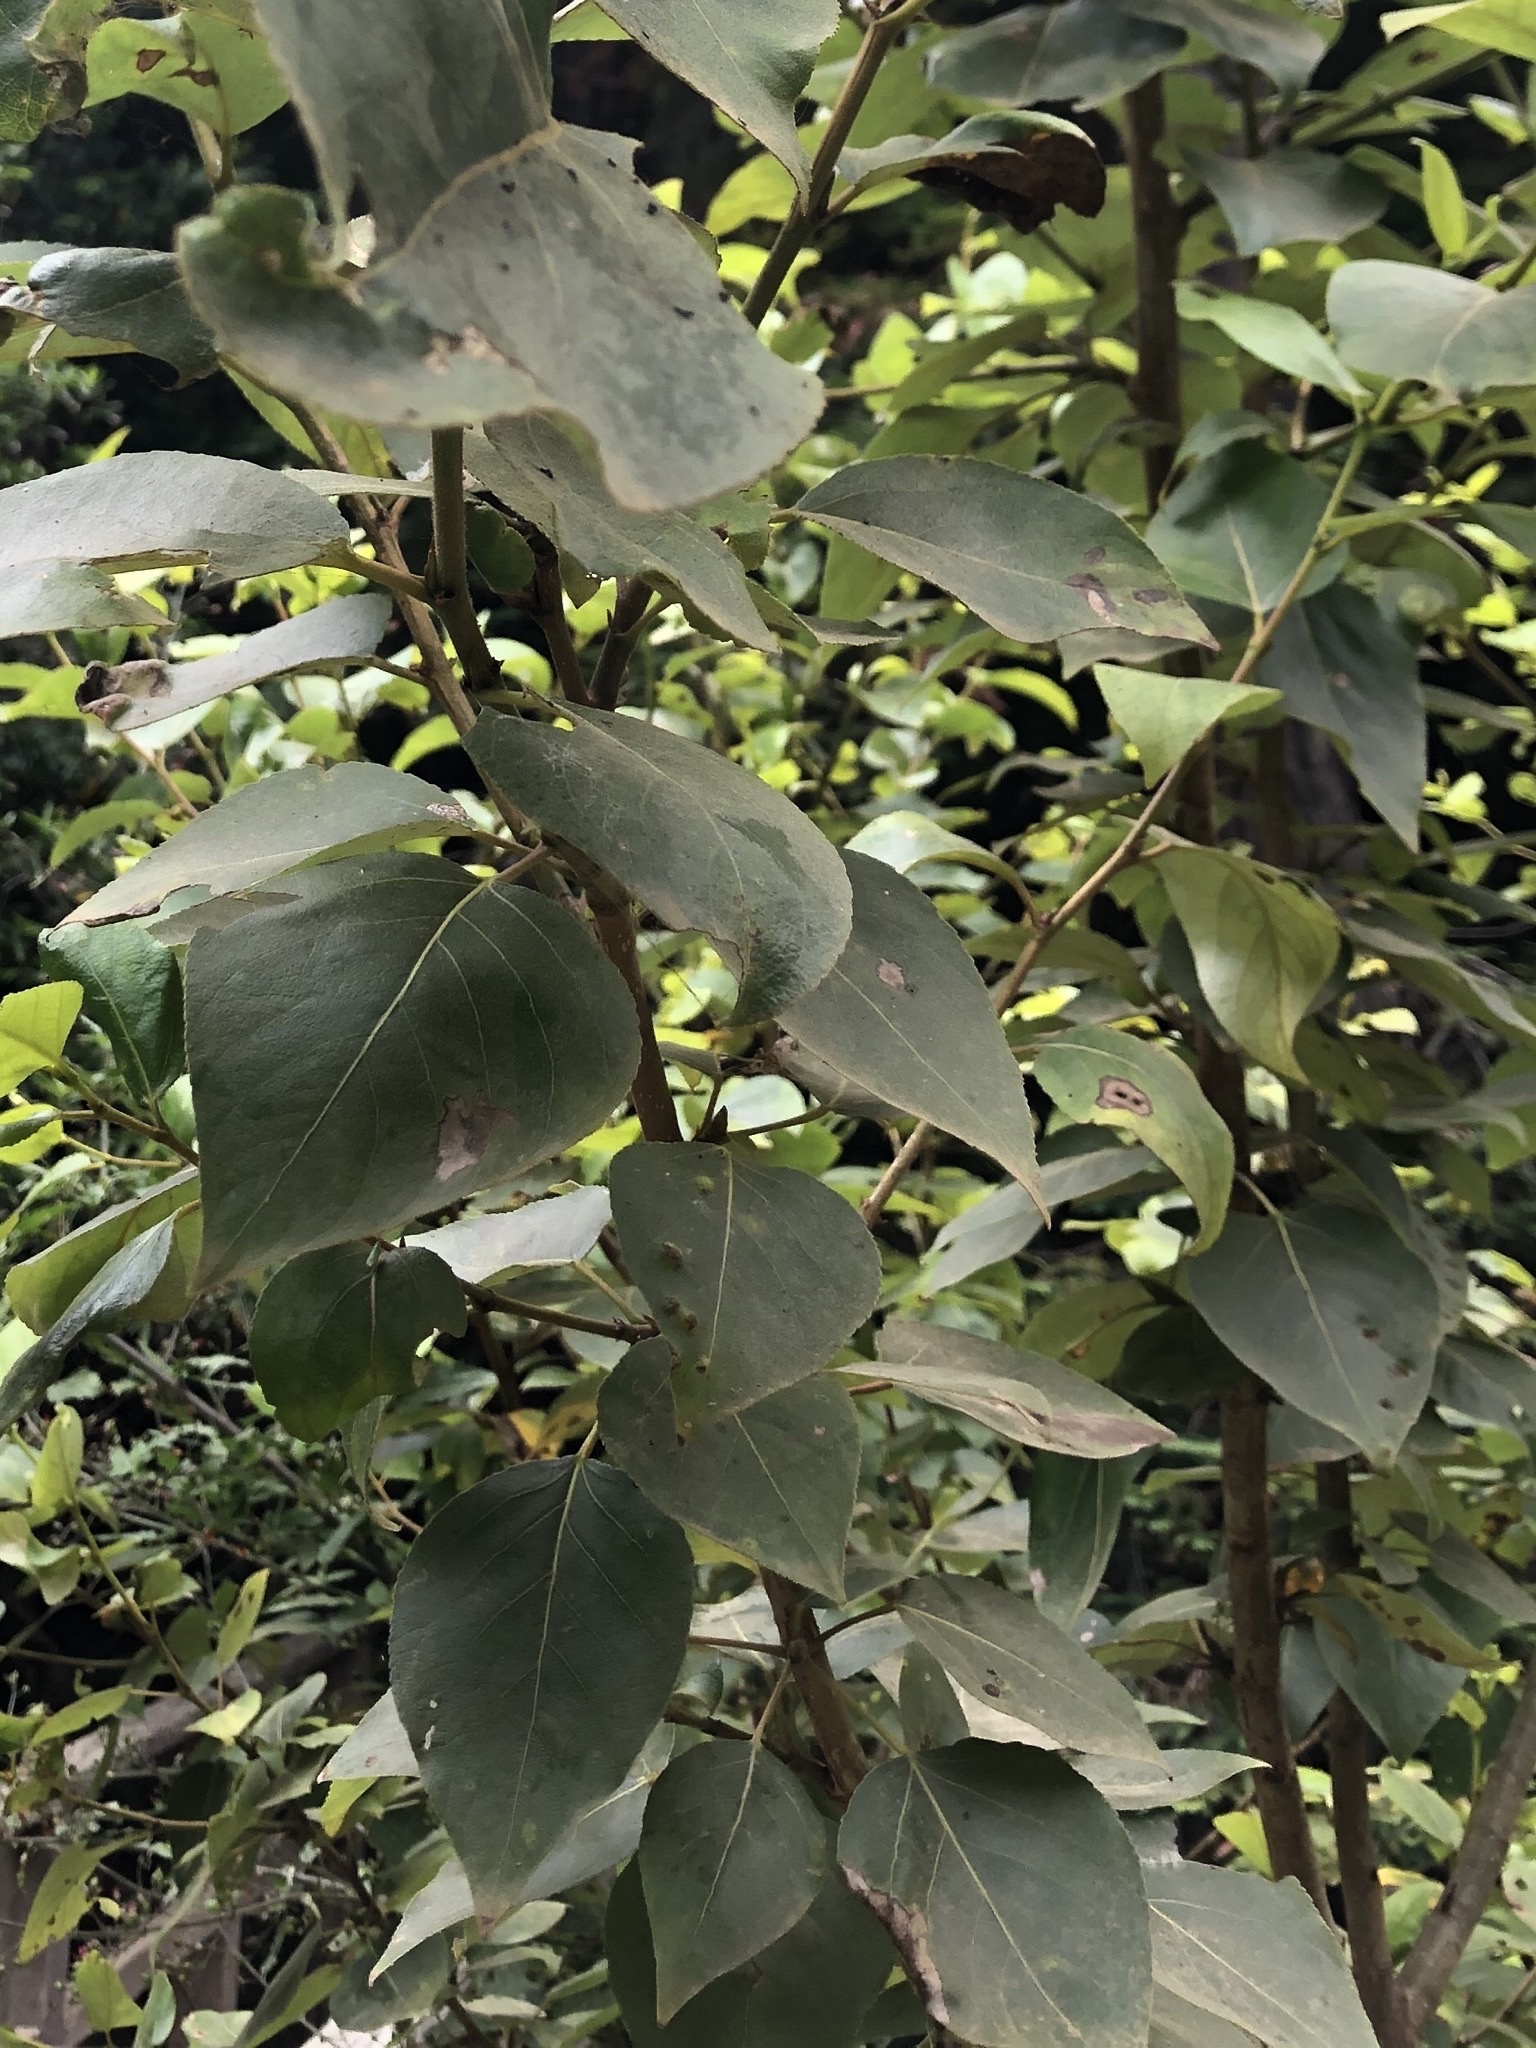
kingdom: Plantae
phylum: Tracheophyta
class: Magnoliopsida
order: Malpighiales
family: Salicaceae
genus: Populus
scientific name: Populus trichocarpa
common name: Black cottonwood
